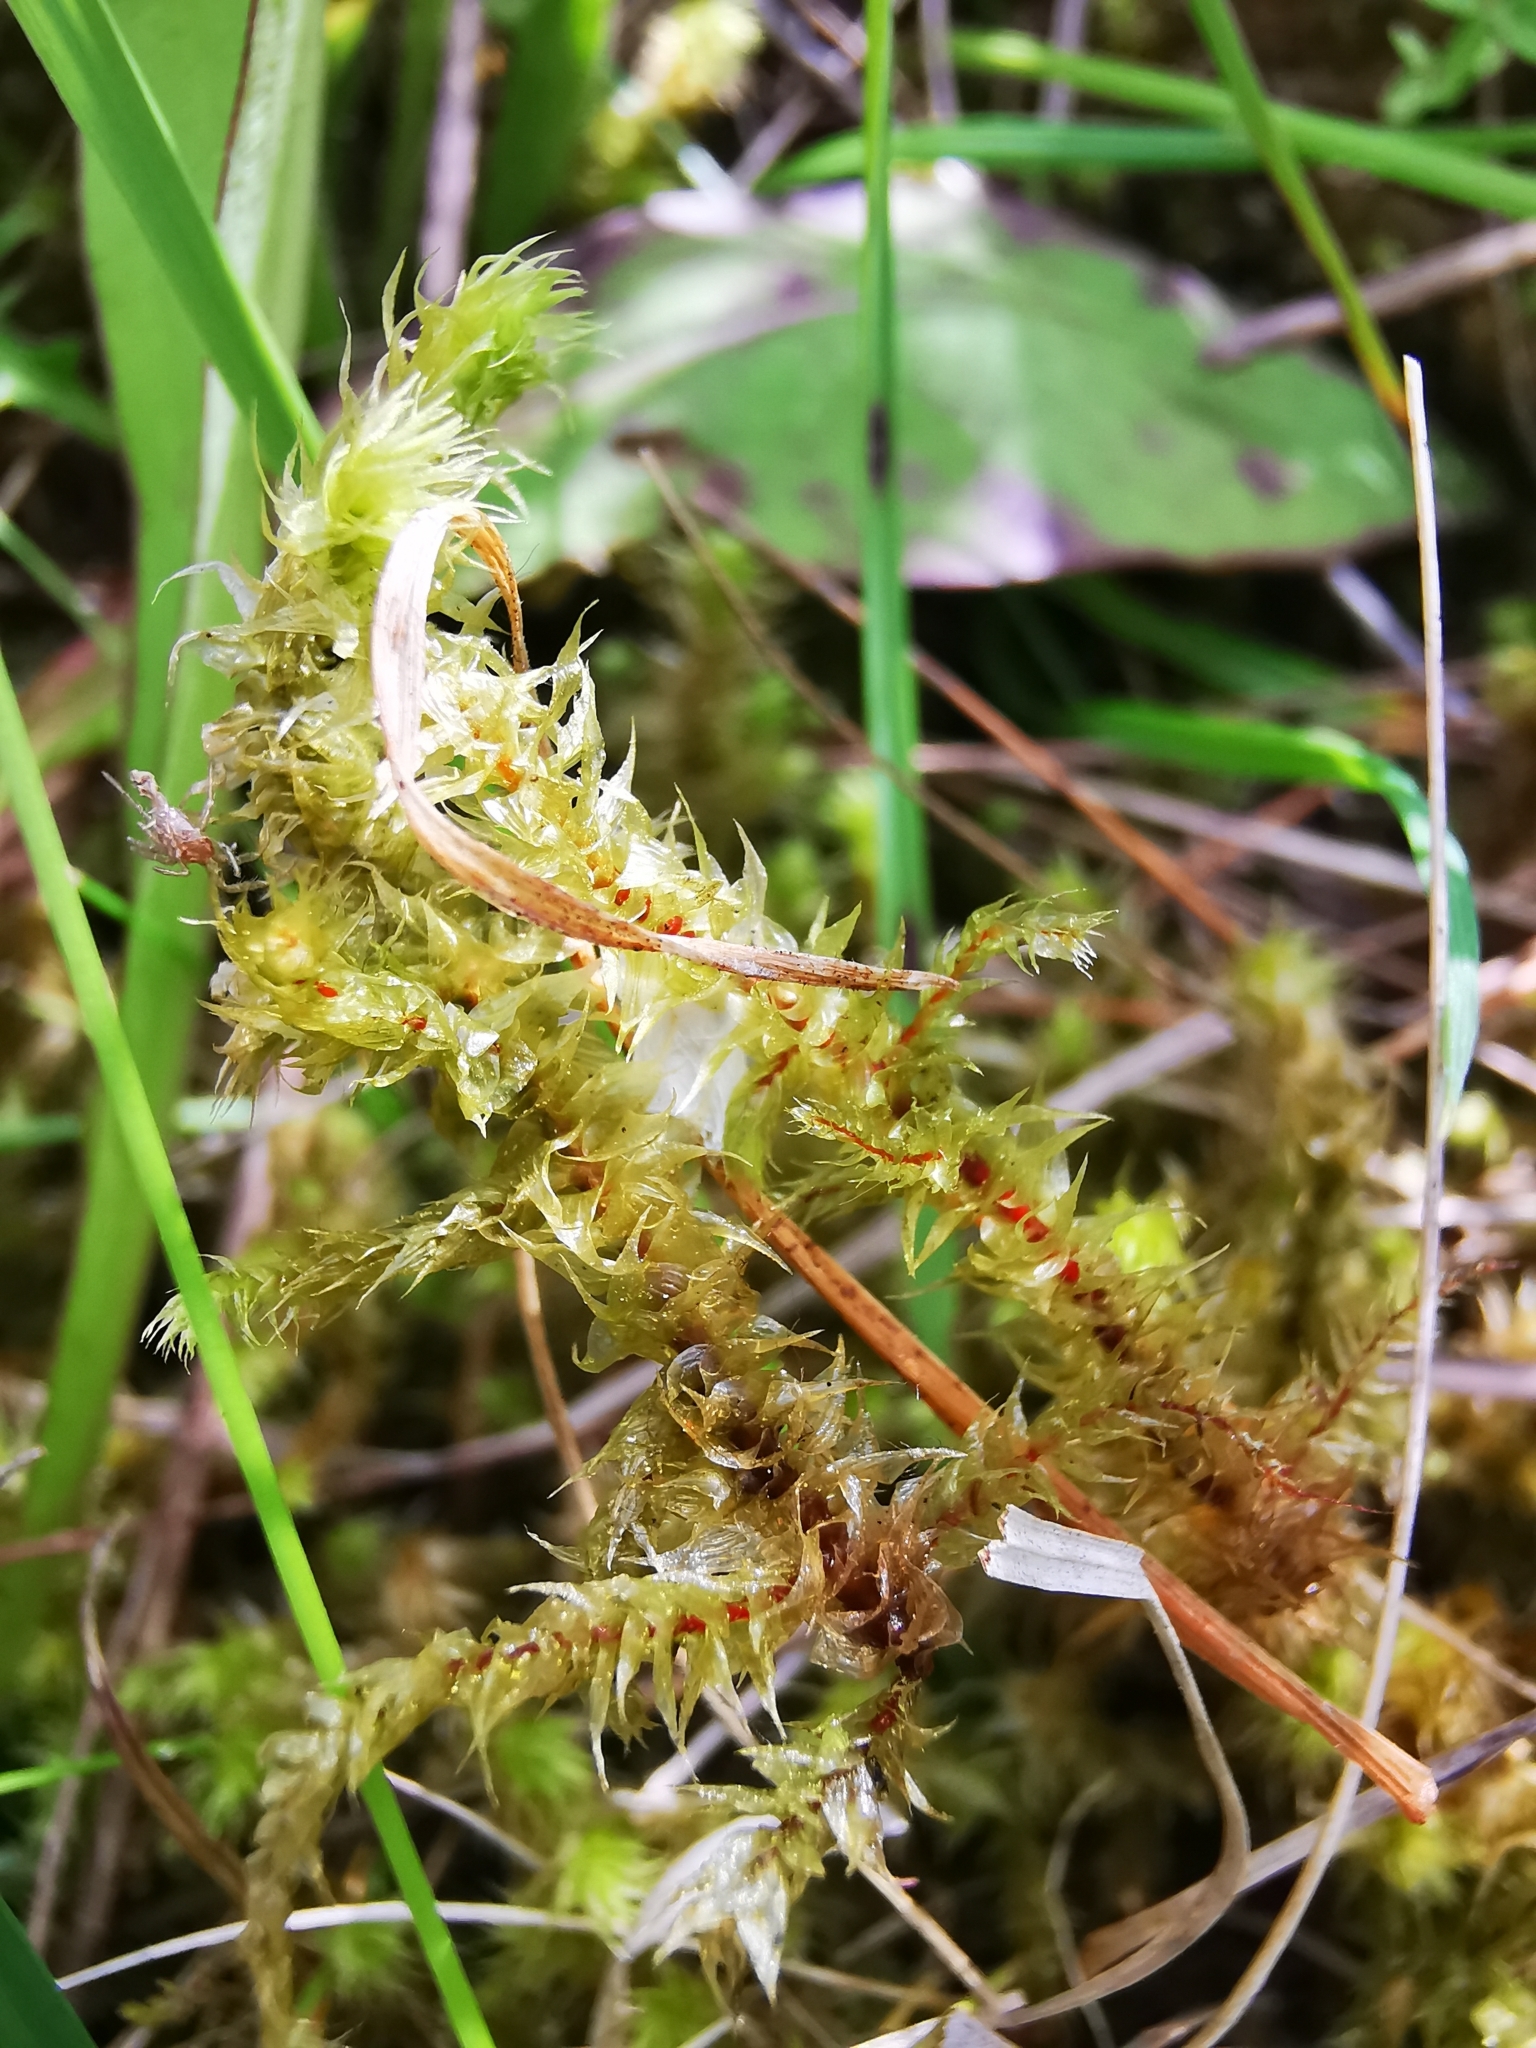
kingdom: Plantae
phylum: Bryophyta
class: Bryopsida
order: Hypnales
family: Hylocomiaceae
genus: Rhytidiadelphus
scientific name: Rhytidiadelphus squarrosus
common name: Springy turf-moss
